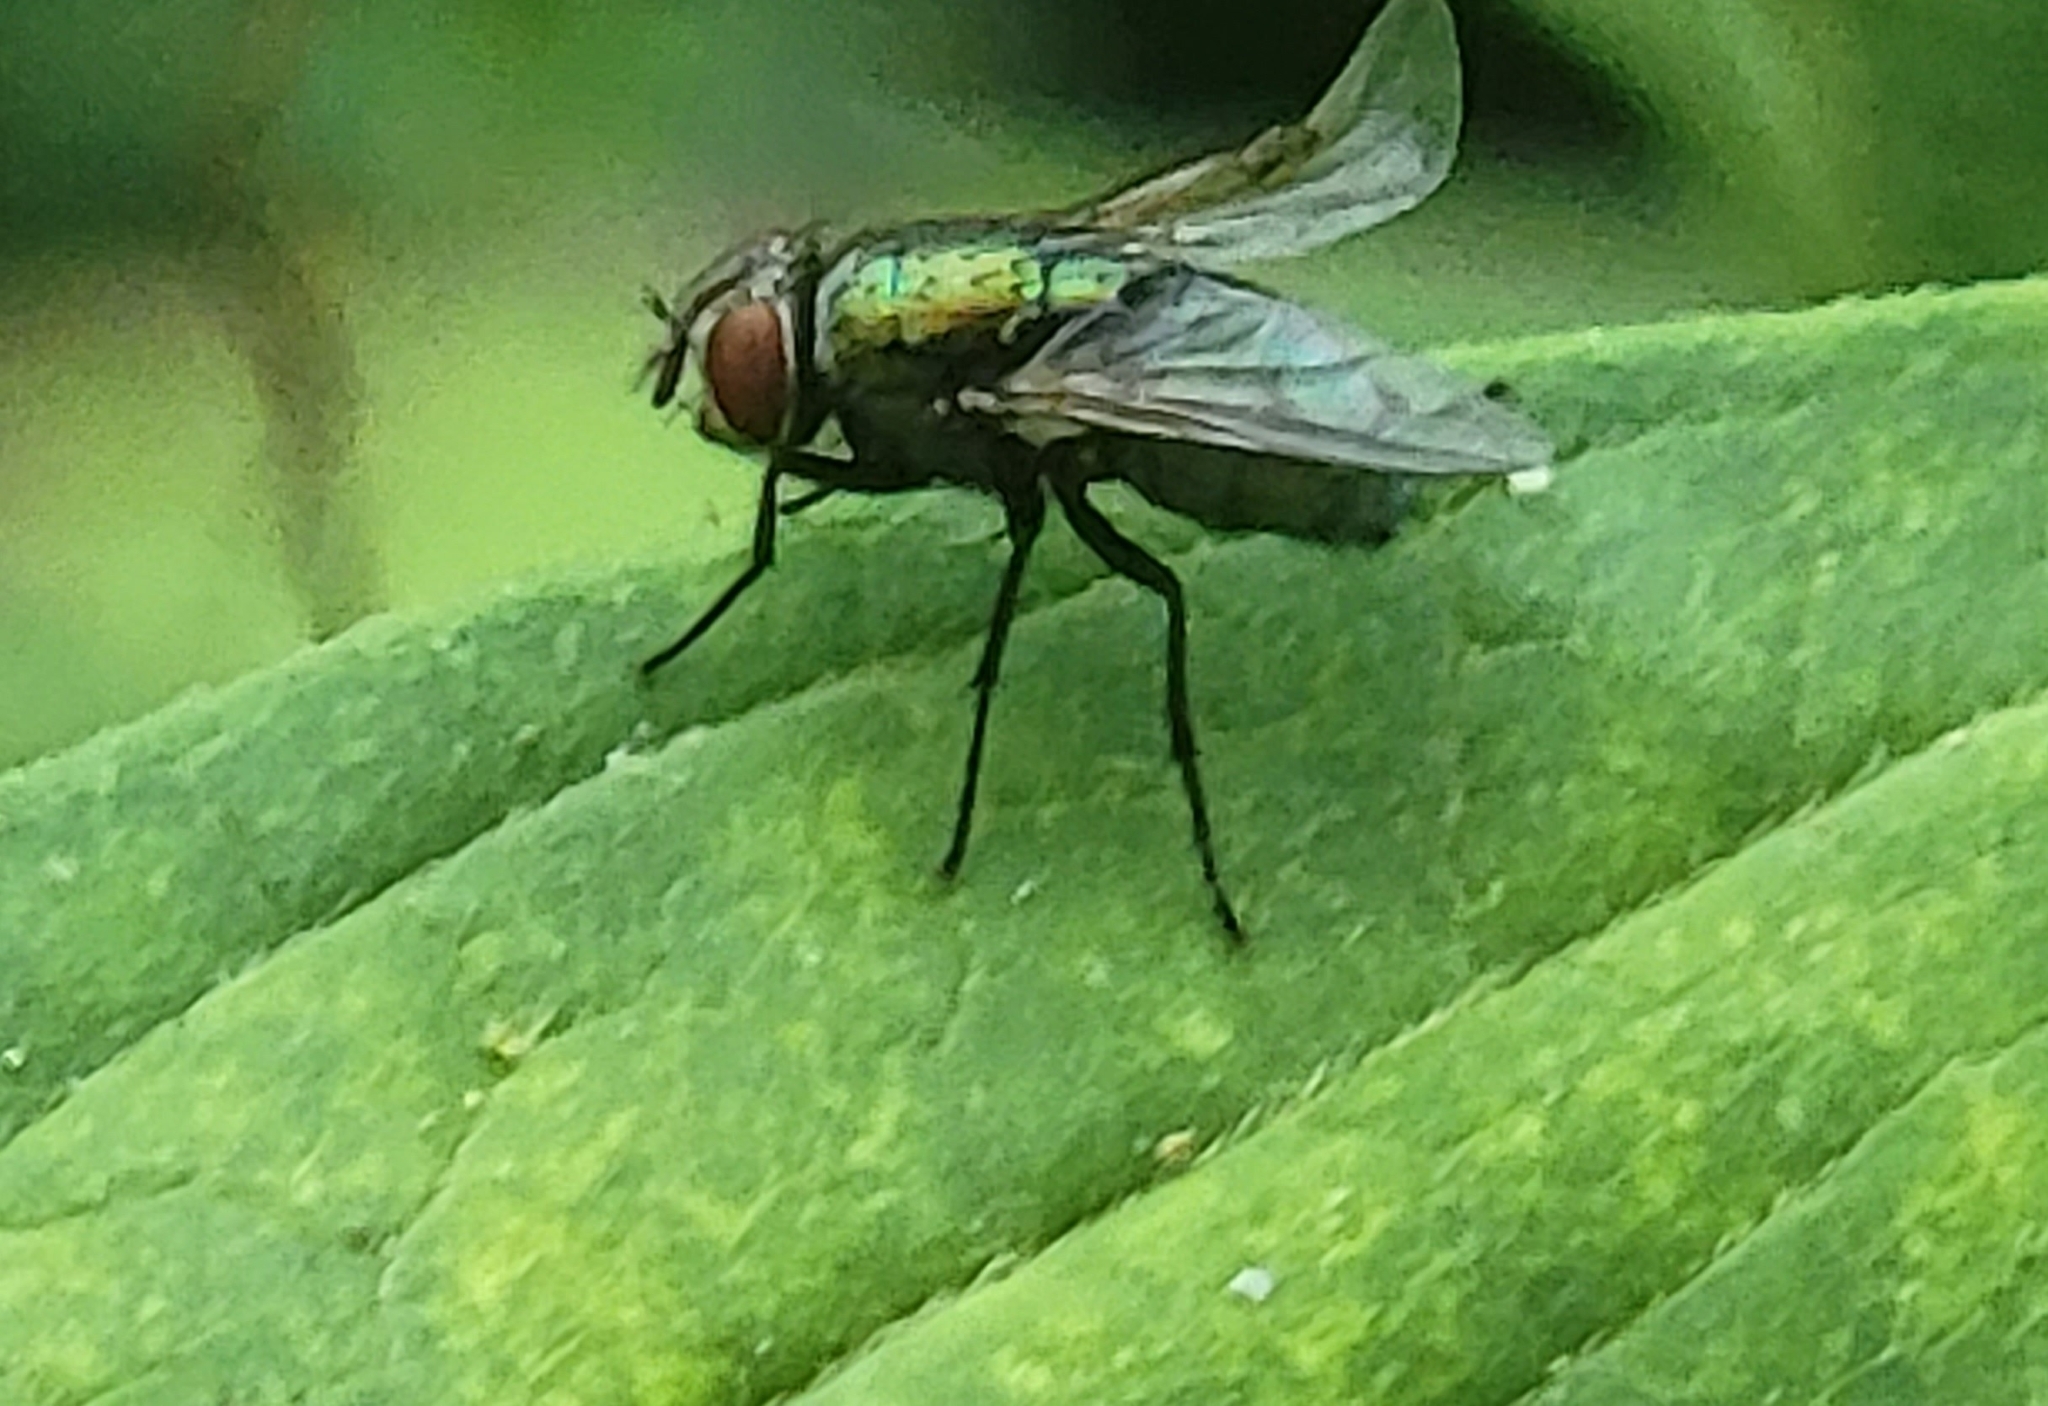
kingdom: Animalia
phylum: Arthropoda
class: Insecta
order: Diptera
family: Calliphoridae
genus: Lucilia
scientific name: Lucilia sericata
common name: Blow fly
